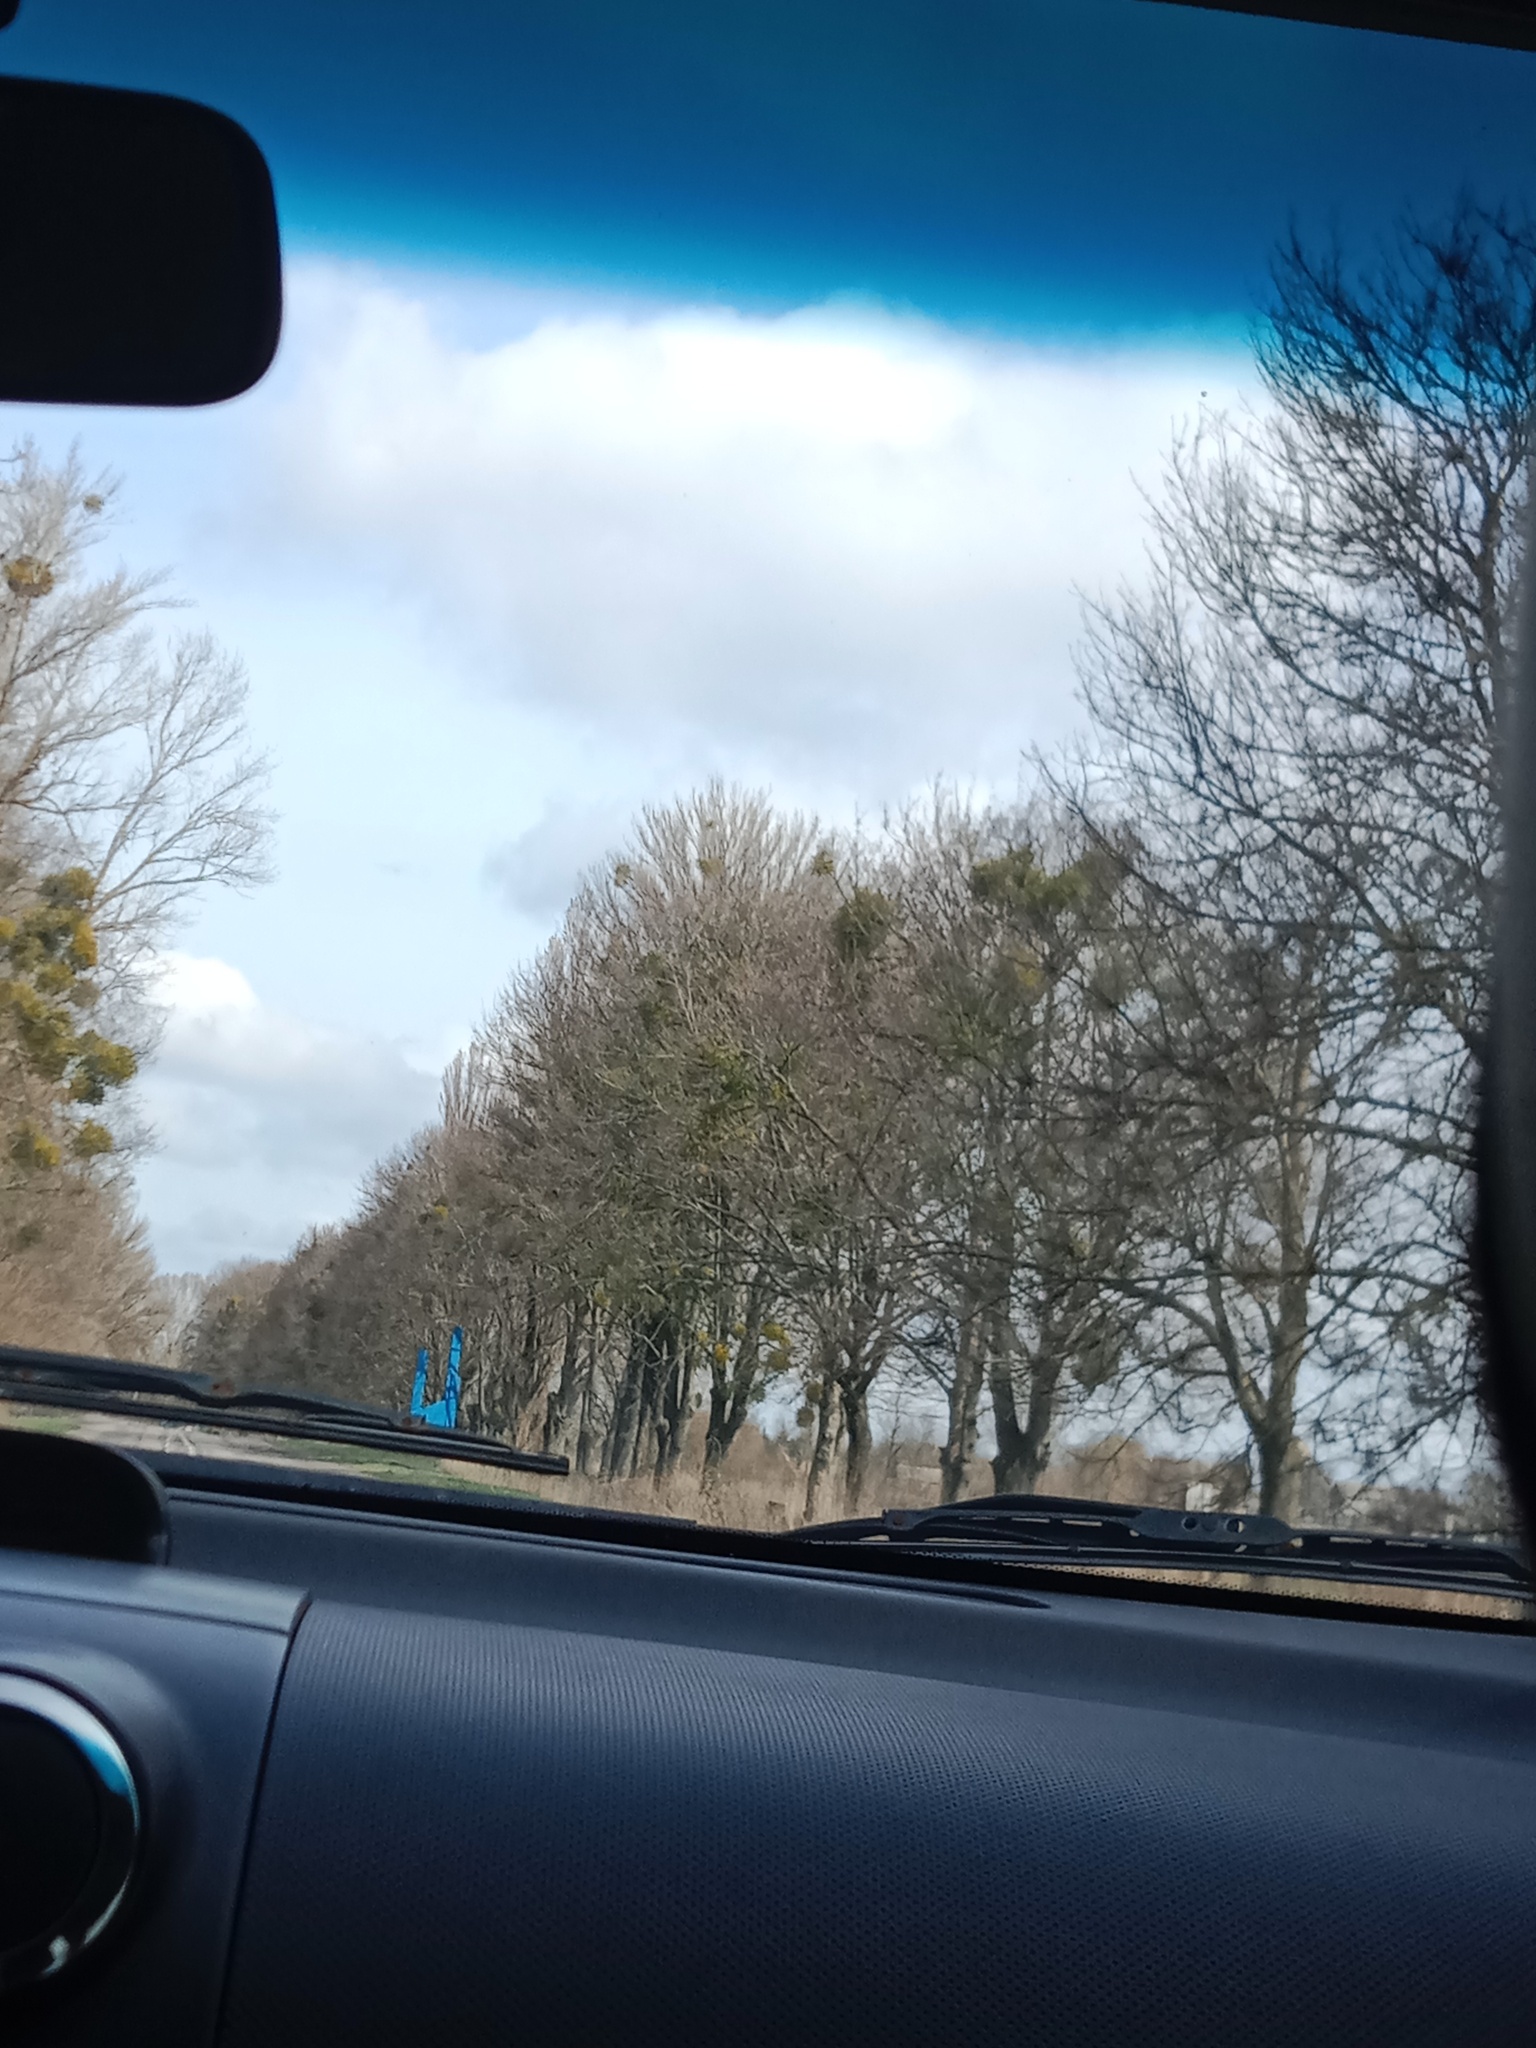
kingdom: Plantae
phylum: Tracheophyta
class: Magnoliopsida
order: Santalales
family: Viscaceae
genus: Viscum
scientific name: Viscum album
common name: Mistletoe
